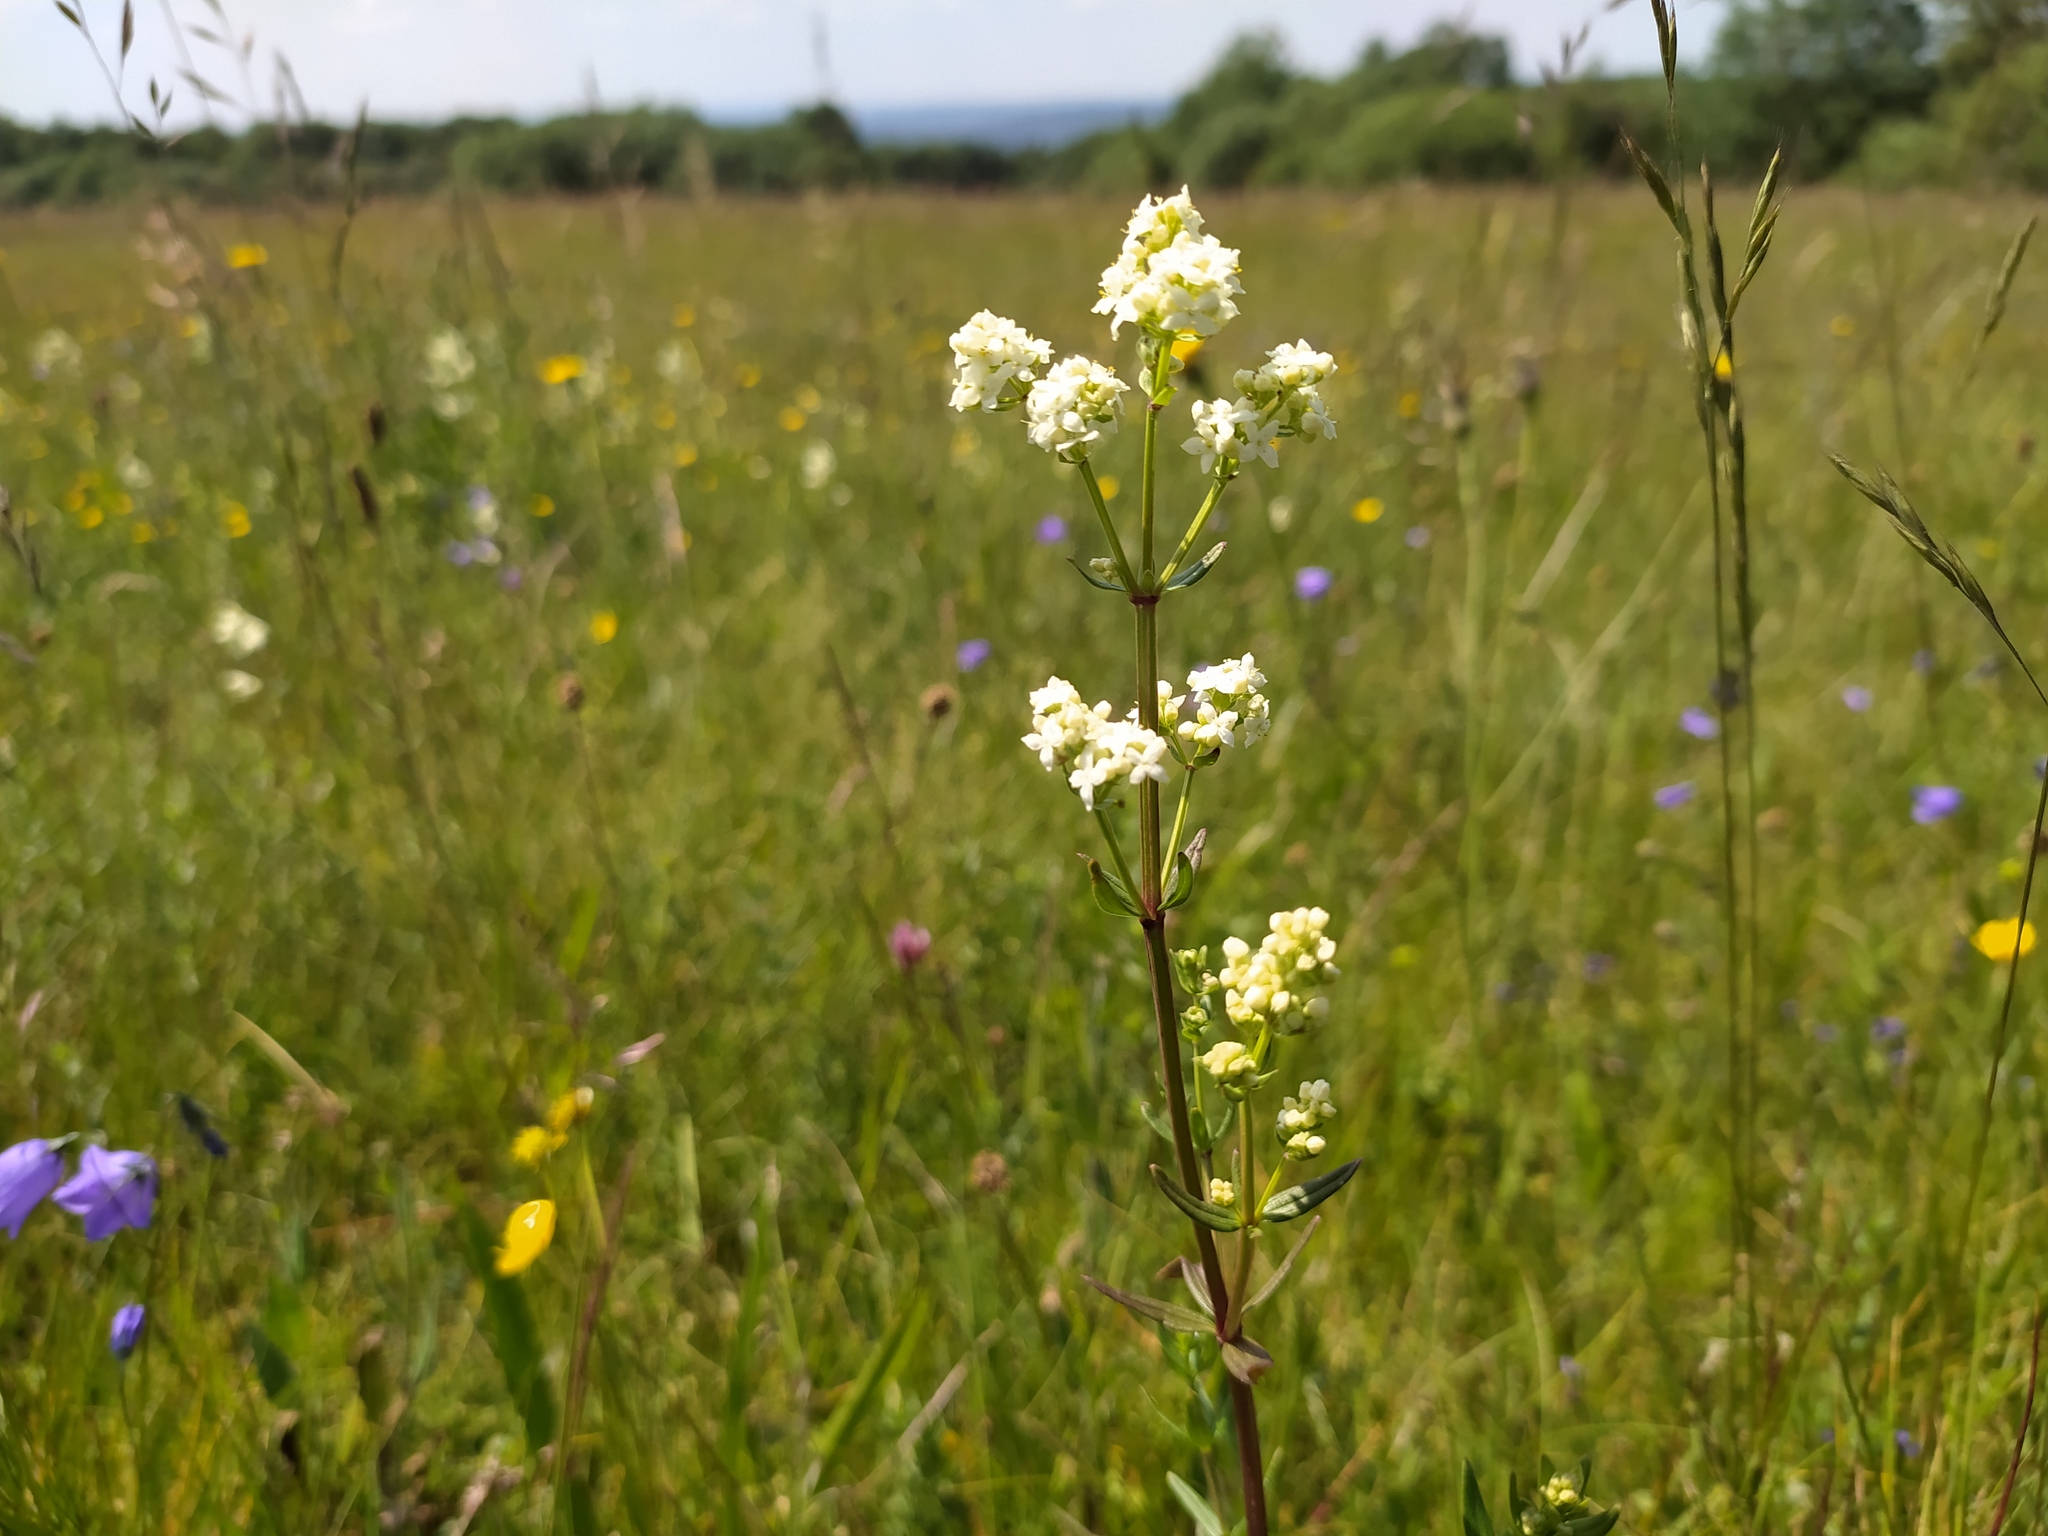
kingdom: Plantae
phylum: Tracheophyta
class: Magnoliopsida
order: Gentianales
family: Rubiaceae
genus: Galium
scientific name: Galium boreale
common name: Northern bedstraw
